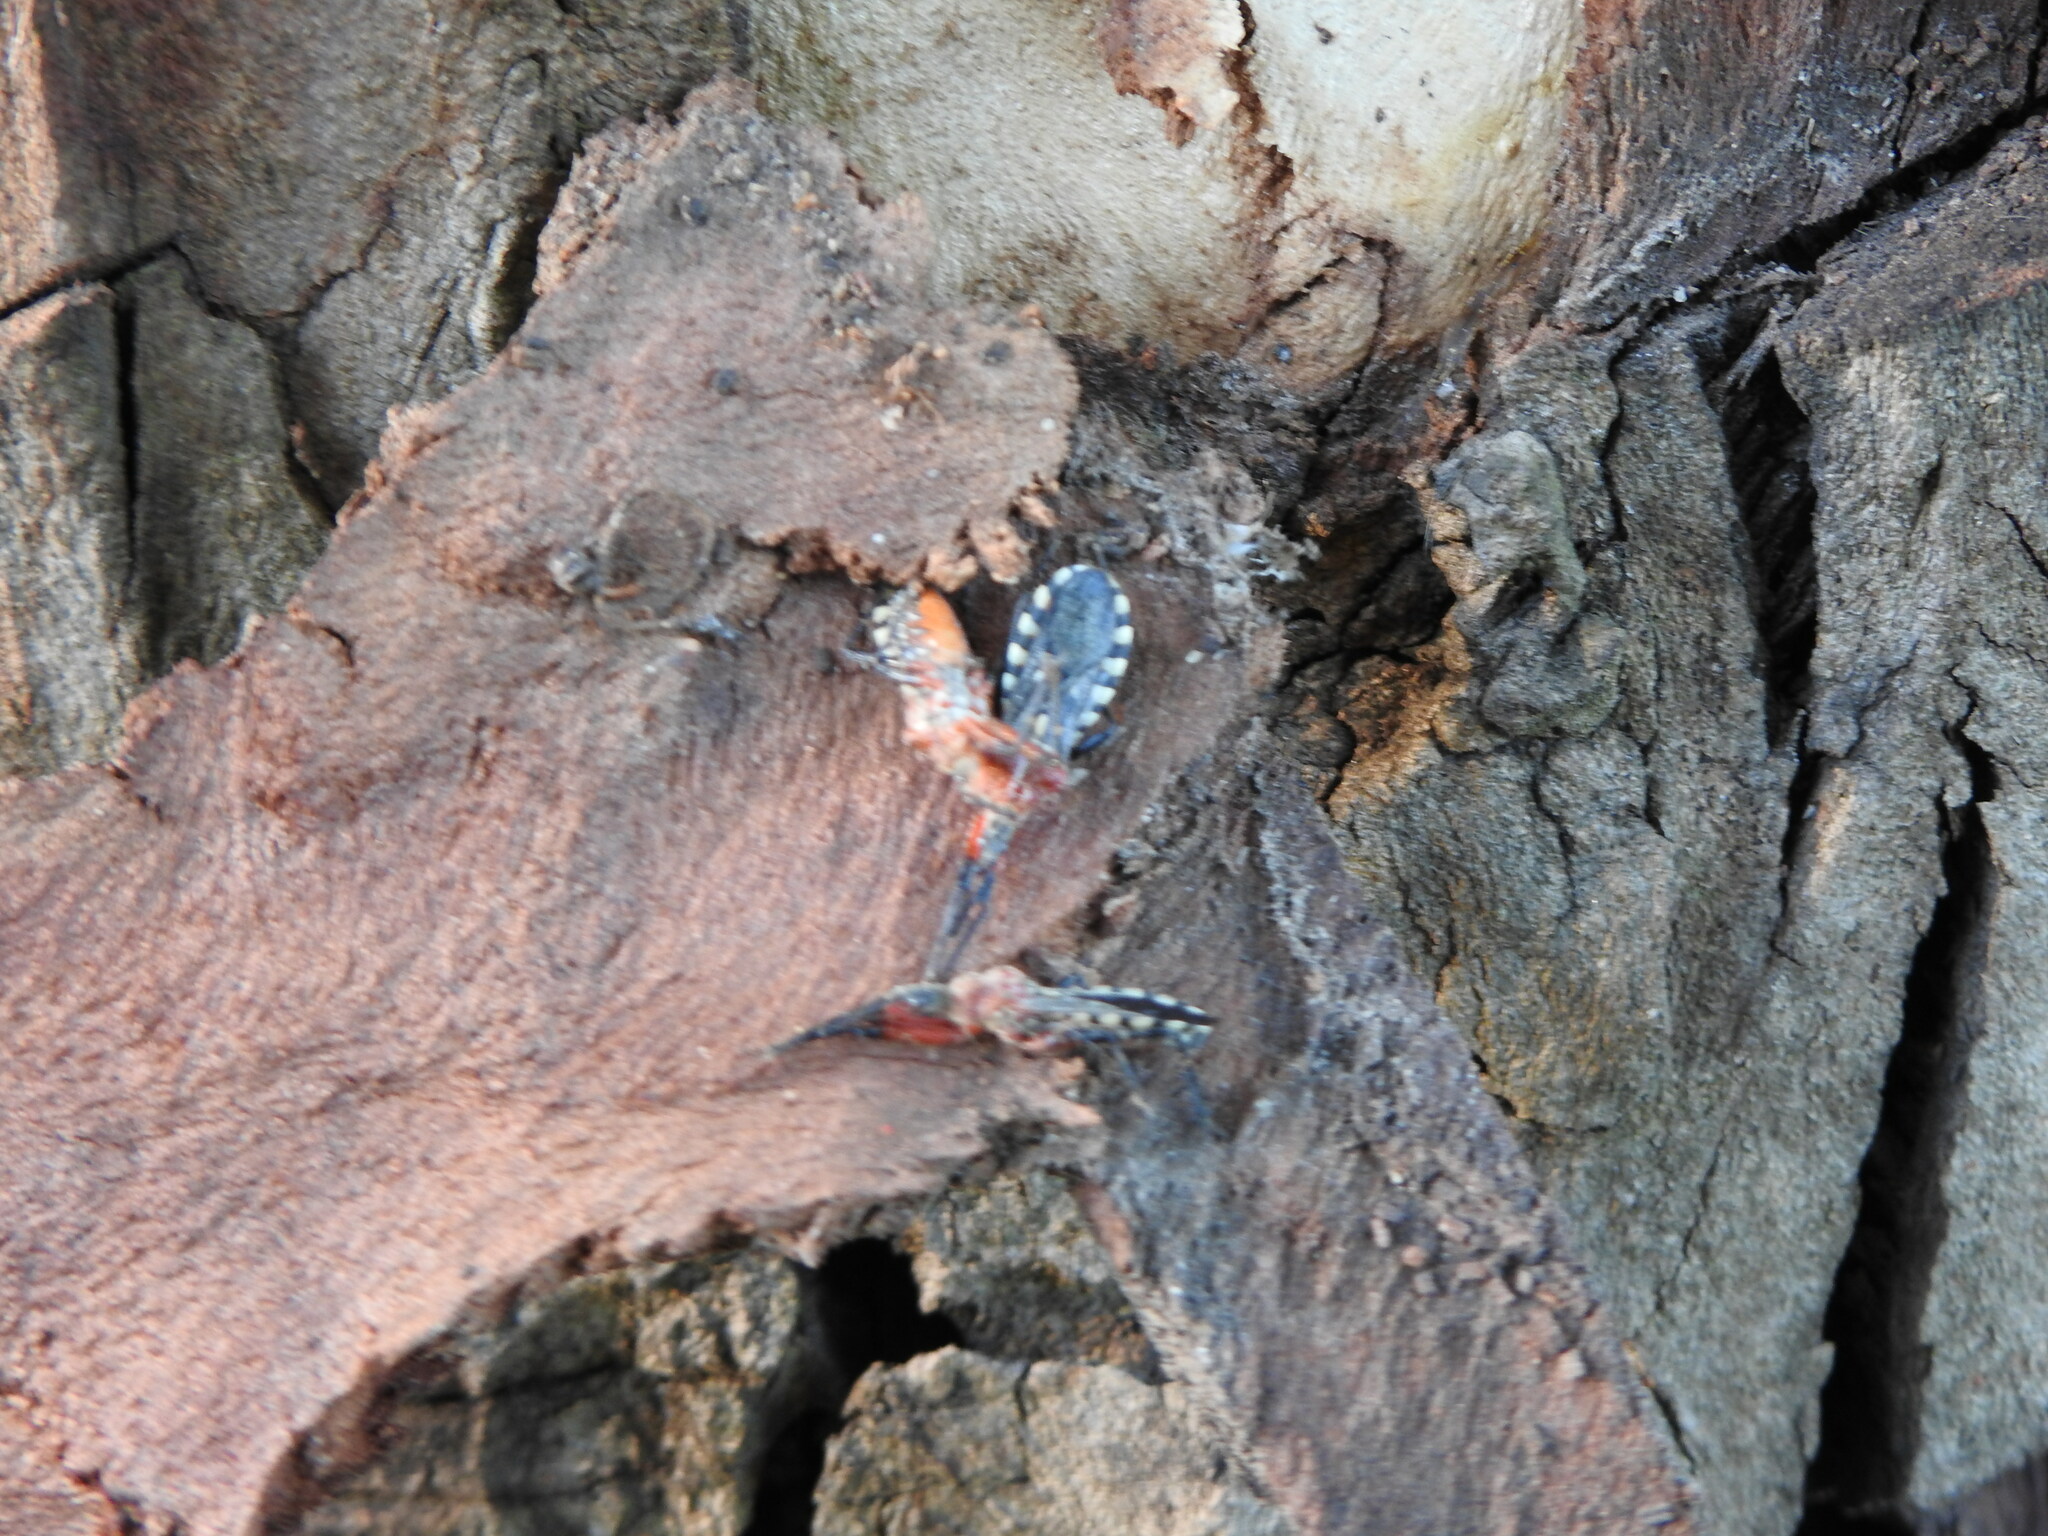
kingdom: Animalia
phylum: Arthropoda
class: Insecta
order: Hemiptera
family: Reduviidae
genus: Cosmoclopius
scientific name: Cosmoclopius poecilus
